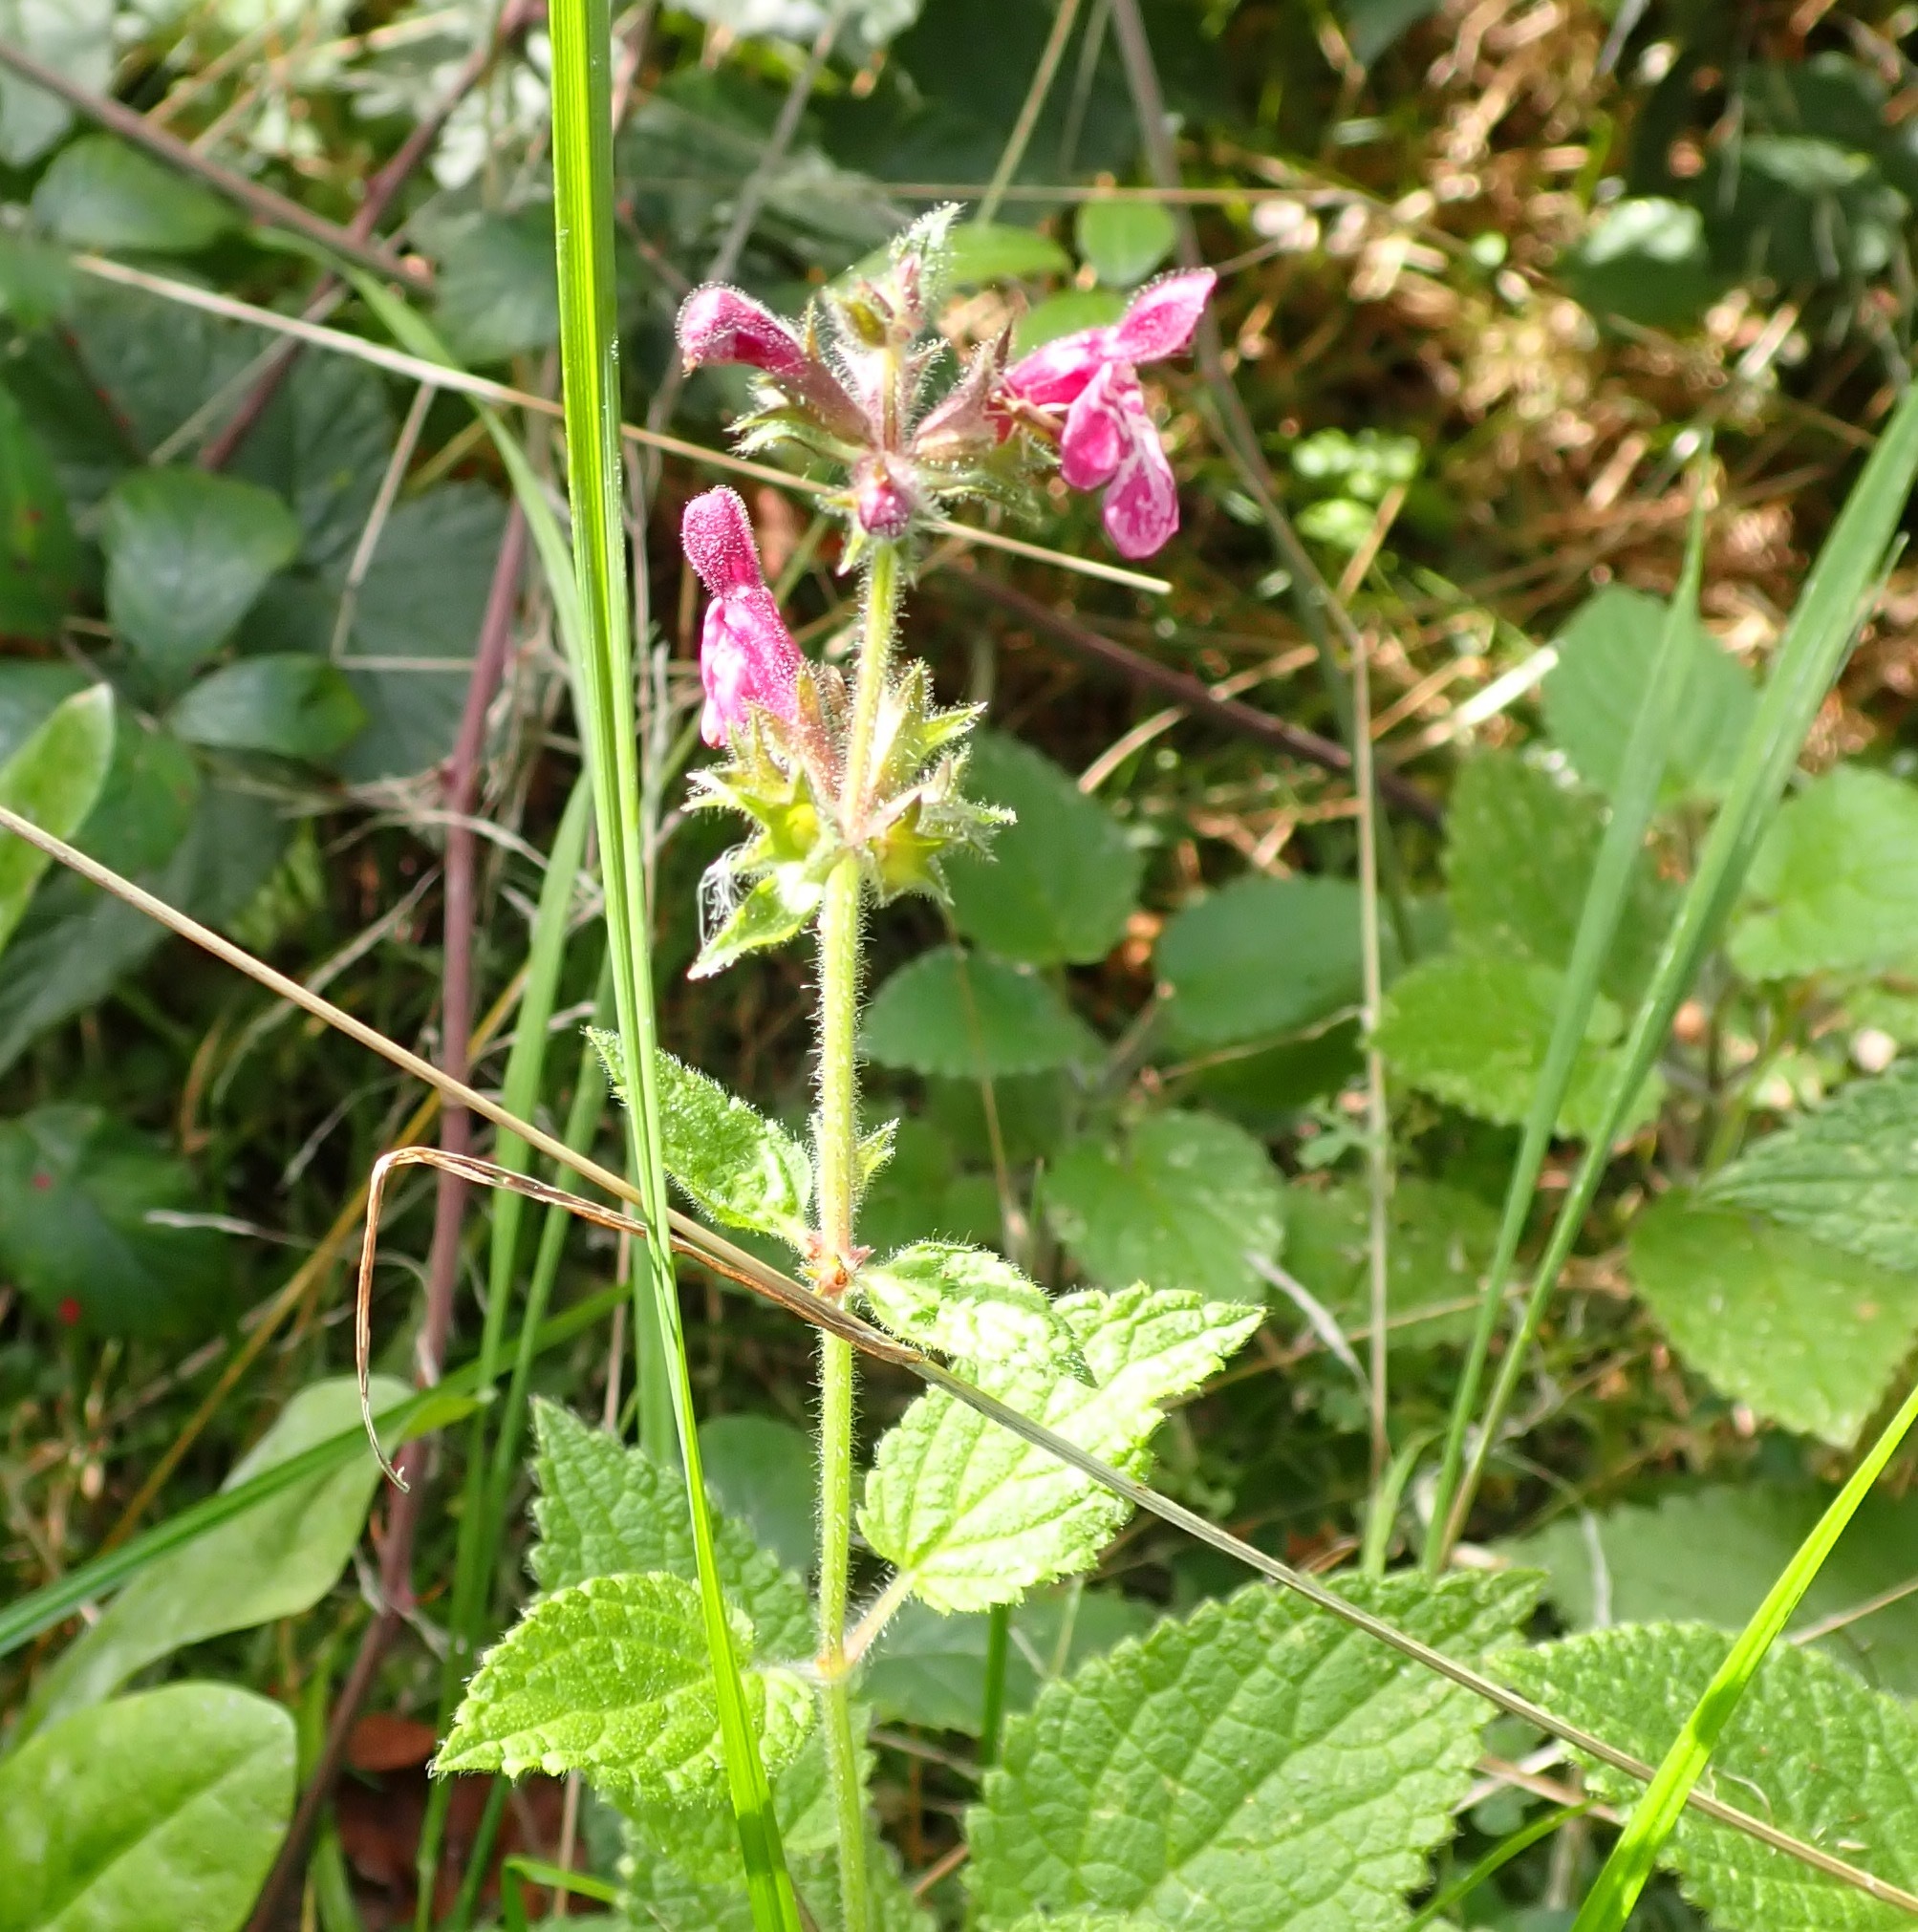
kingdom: Plantae
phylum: Tracheophyta
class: Magnoliopsida
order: Lamiales
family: Lamiaceae
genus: Stachys
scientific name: Stachys sylvatica
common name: Hedge woundwort
